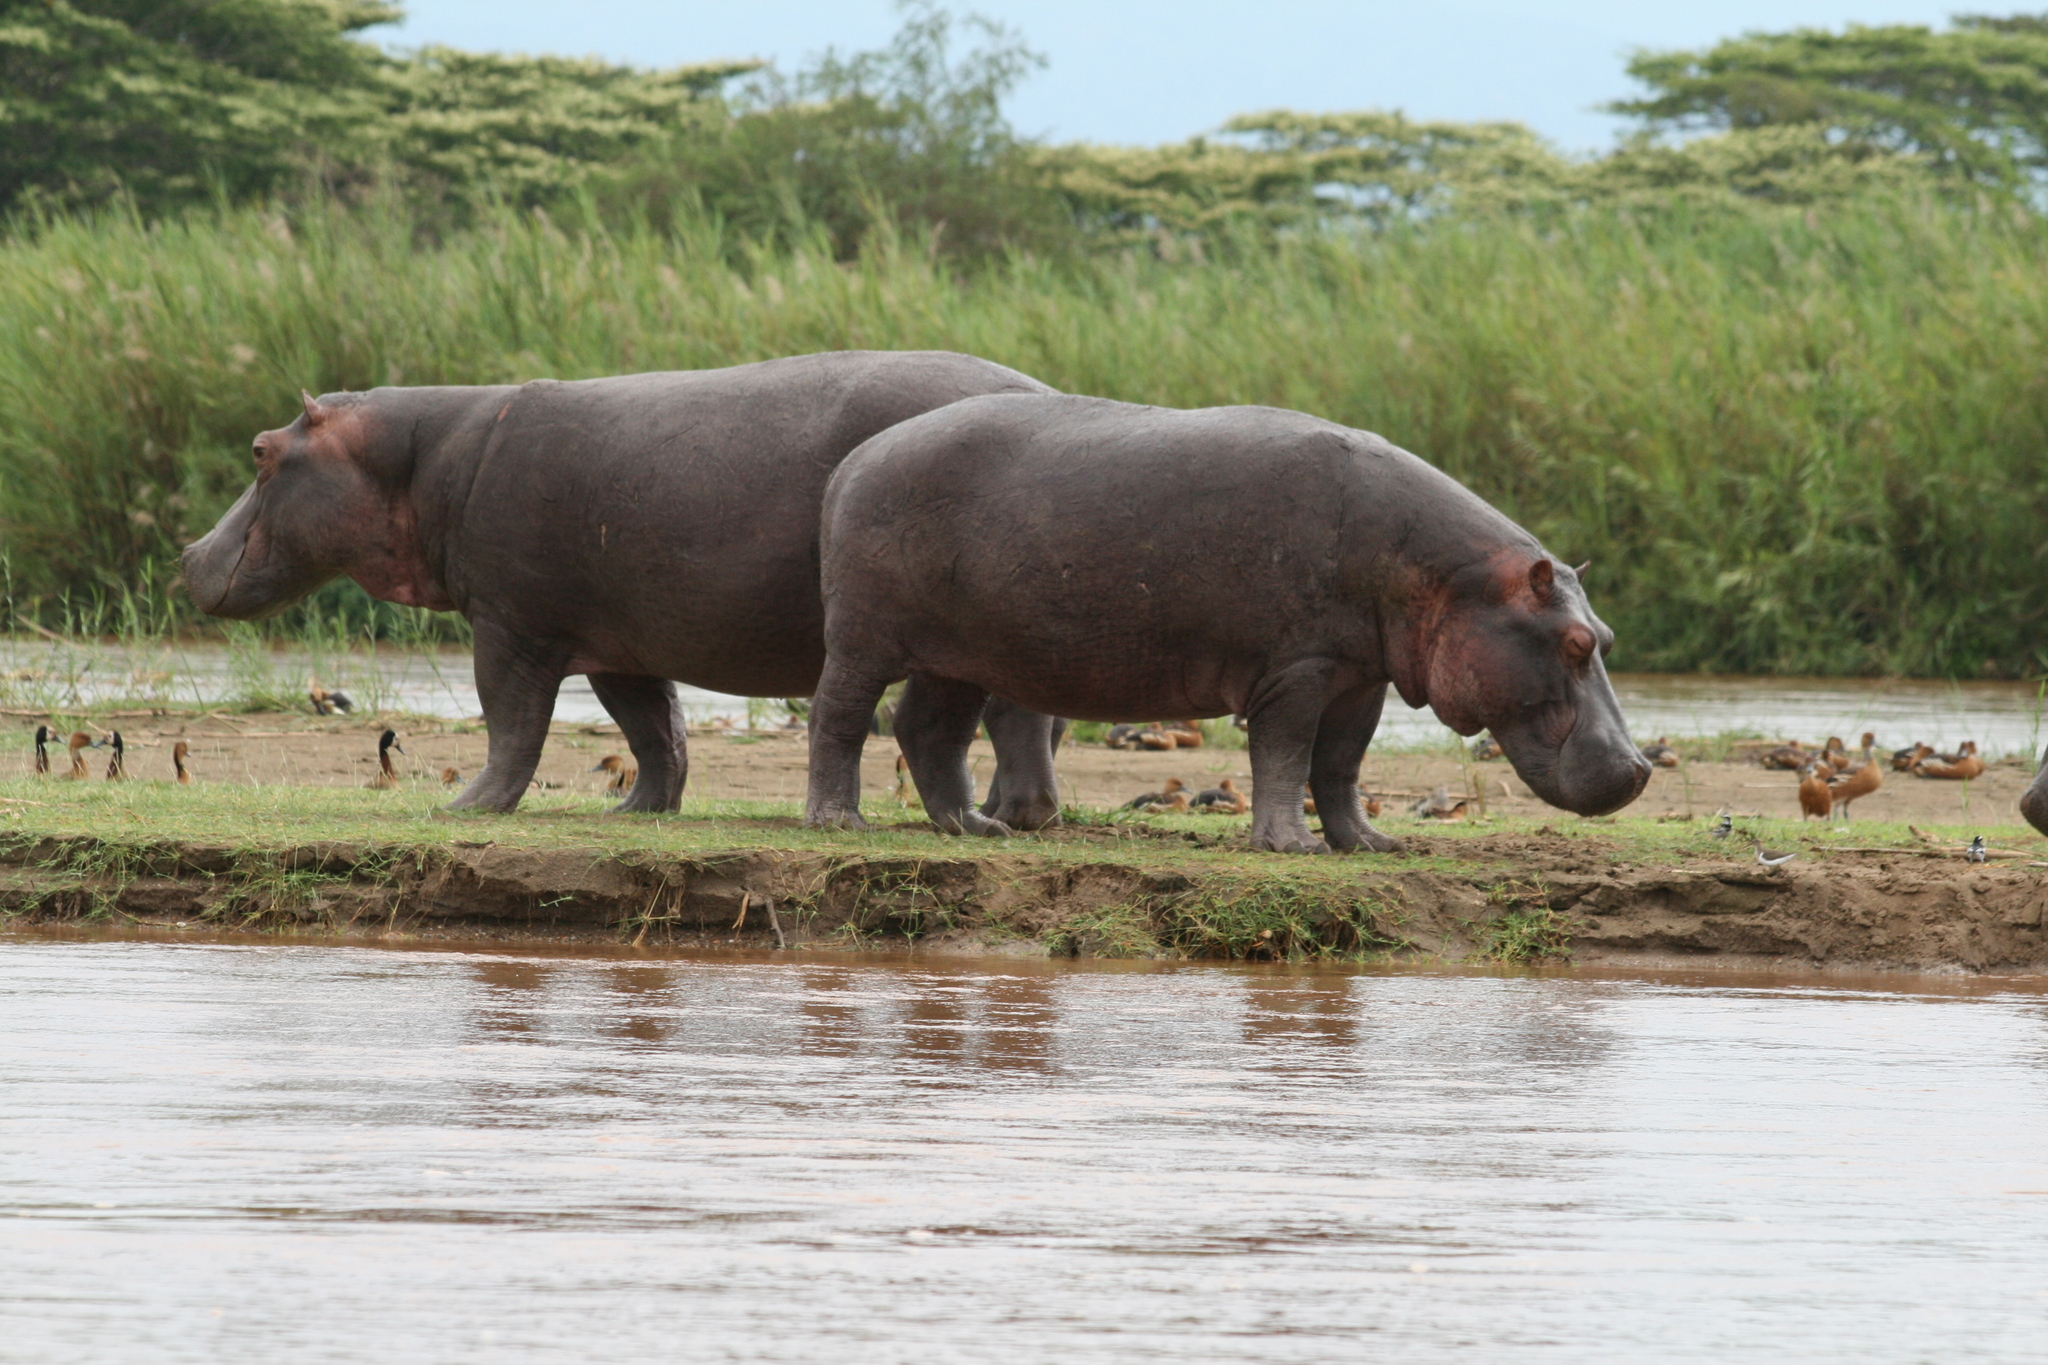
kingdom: Animalia
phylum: Chordata
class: Mammalia
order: Artiodactyla
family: Hippopotamidae
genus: Hippopotamus
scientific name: Hippopotamus amphibius
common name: Common hippopotamus
